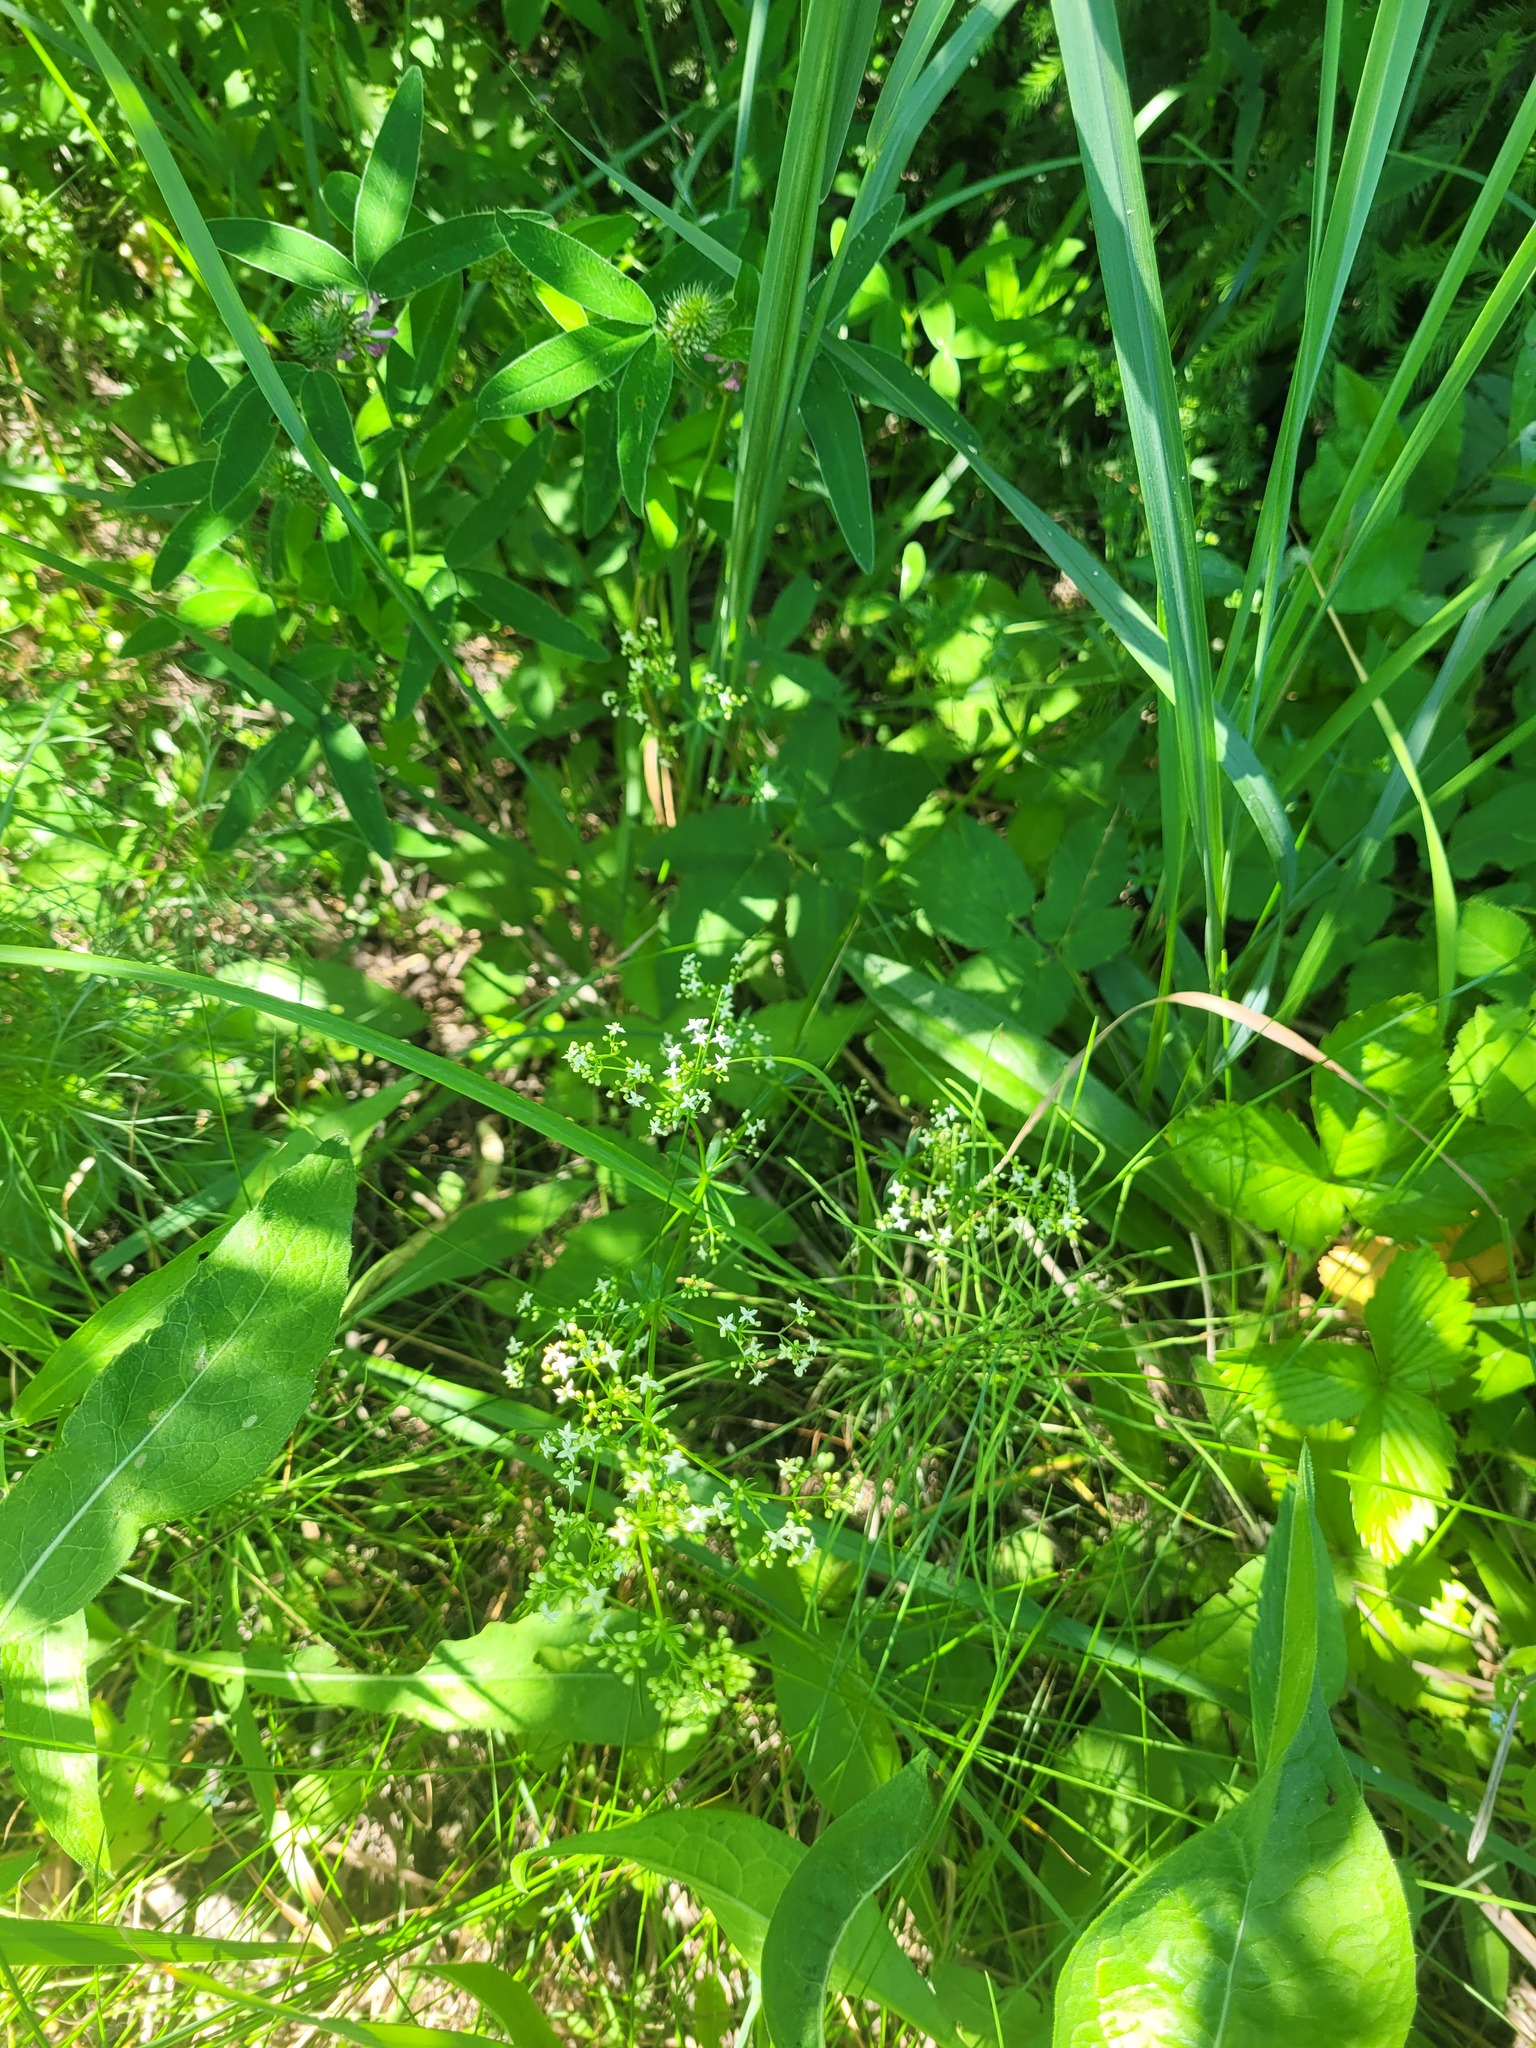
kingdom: Plantae
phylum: Tracheophyta
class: Magnoliopsida
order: Gentianales
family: Rubiaceae
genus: Galium
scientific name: Galium mollugo
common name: Hedge bedstraw
